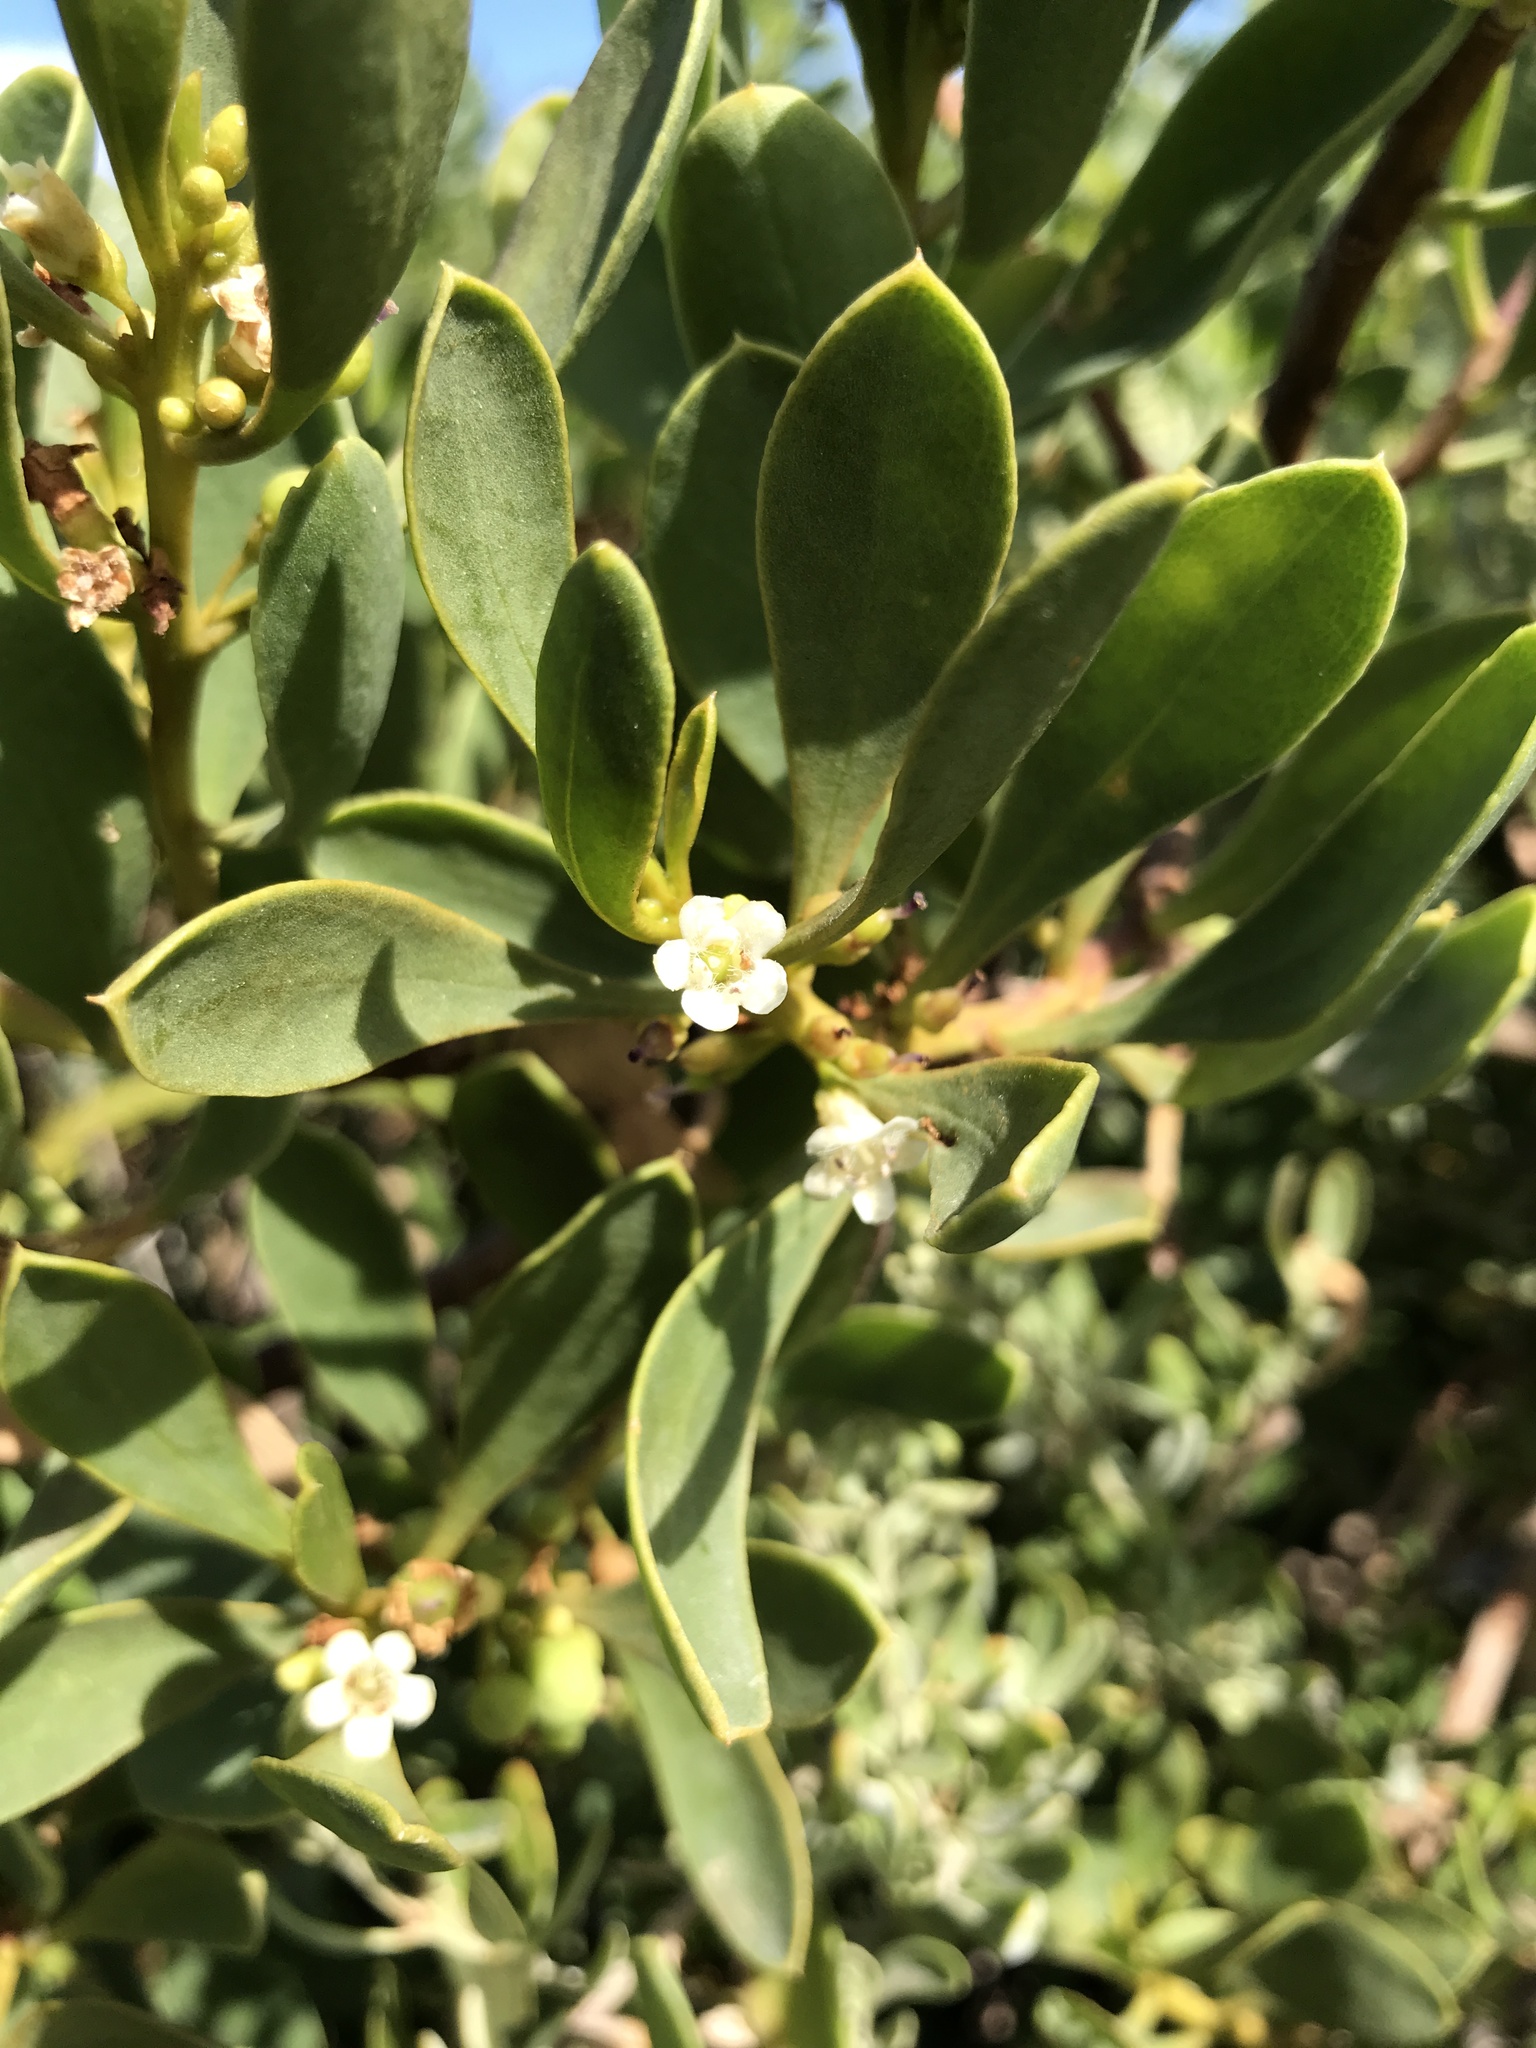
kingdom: Plantae
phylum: Tracheophyta
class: Magnoliopsida
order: Lamiales
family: Scrophulariaceae
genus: Myoporum
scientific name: Myoporum insulare
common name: Common boobialla
